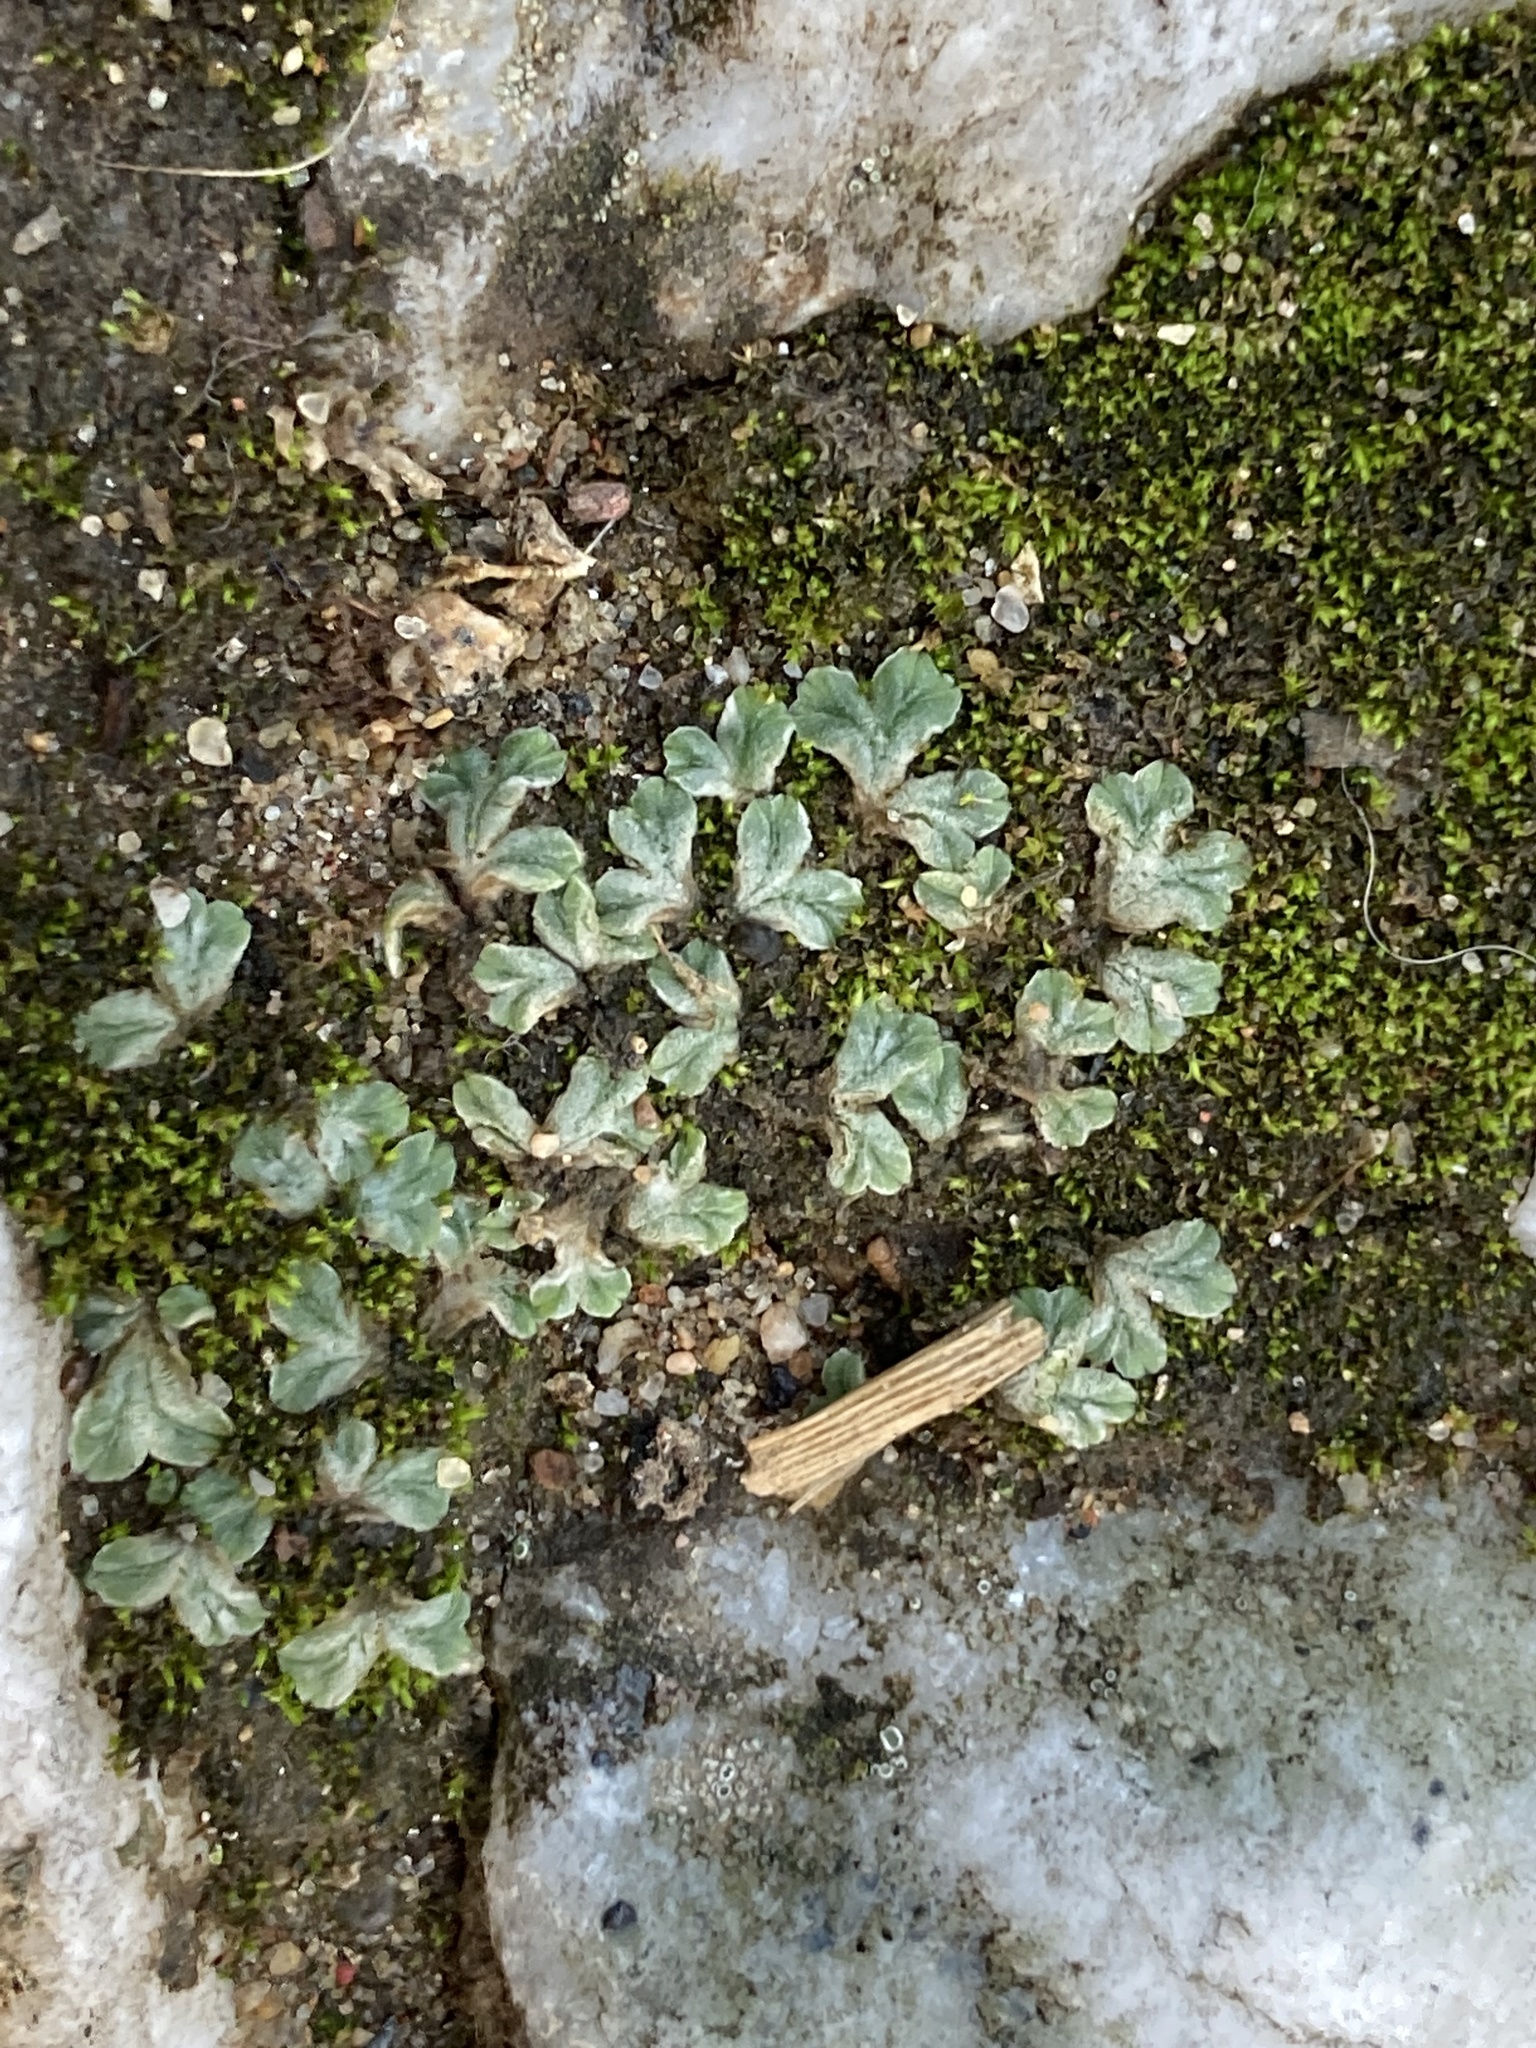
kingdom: Plantae
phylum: Marchantiophyta
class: Marchantiopsida
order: Marchantiales
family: Ricciaceae
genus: Riccia
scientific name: Riccia lamellosa
